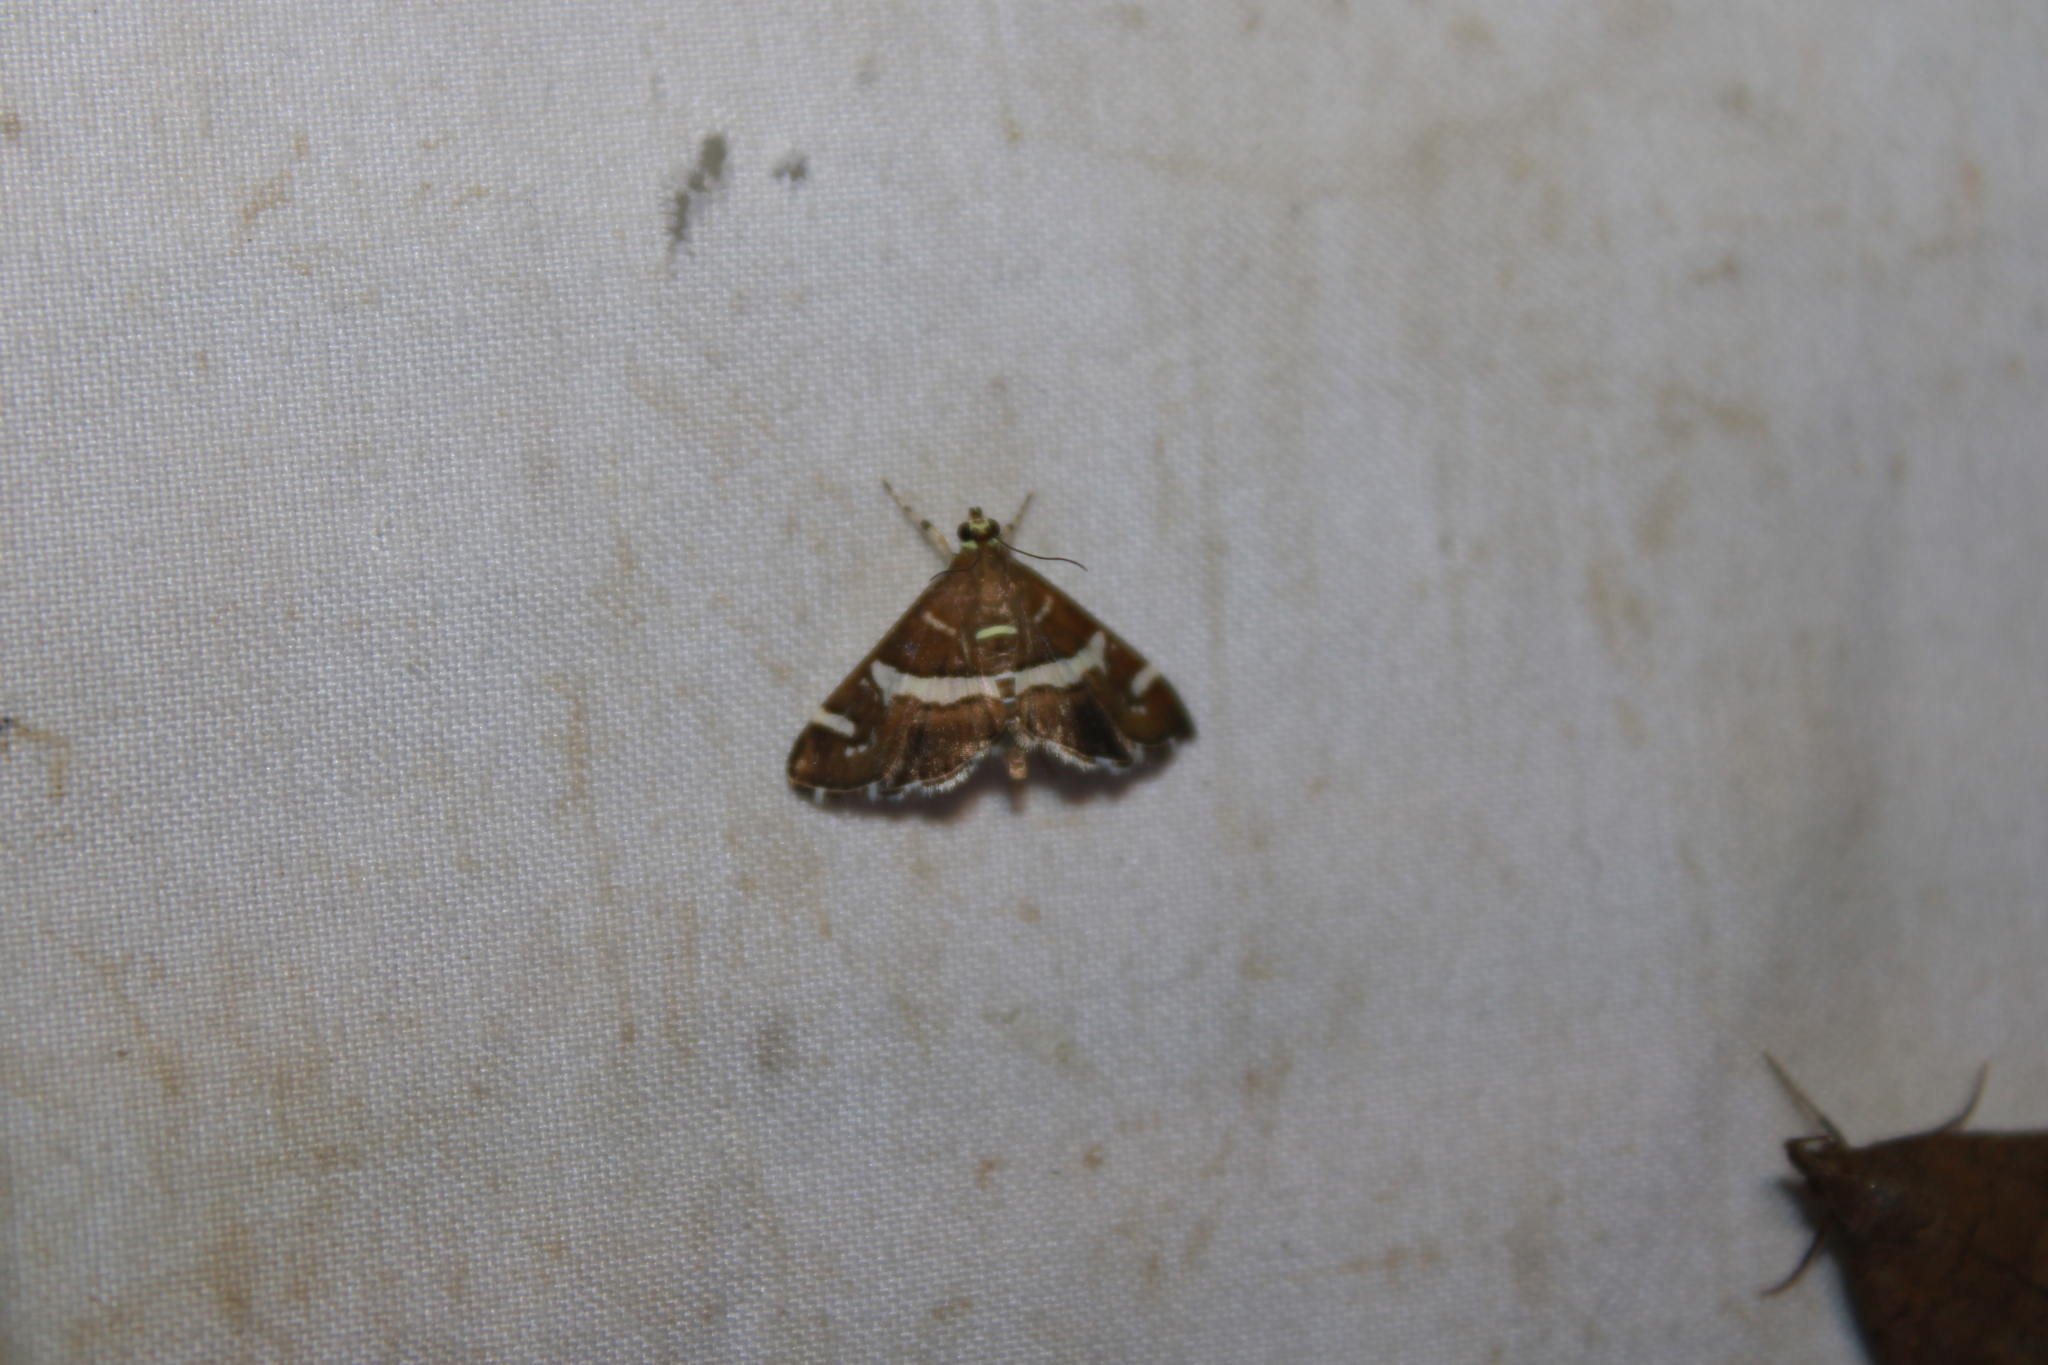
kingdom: Animalia
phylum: Arthropoda
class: Insecta
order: Lepidoptera
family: Crambidae
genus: Spoladea
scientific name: Spoladea recurvalis
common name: Beet webworm moth
